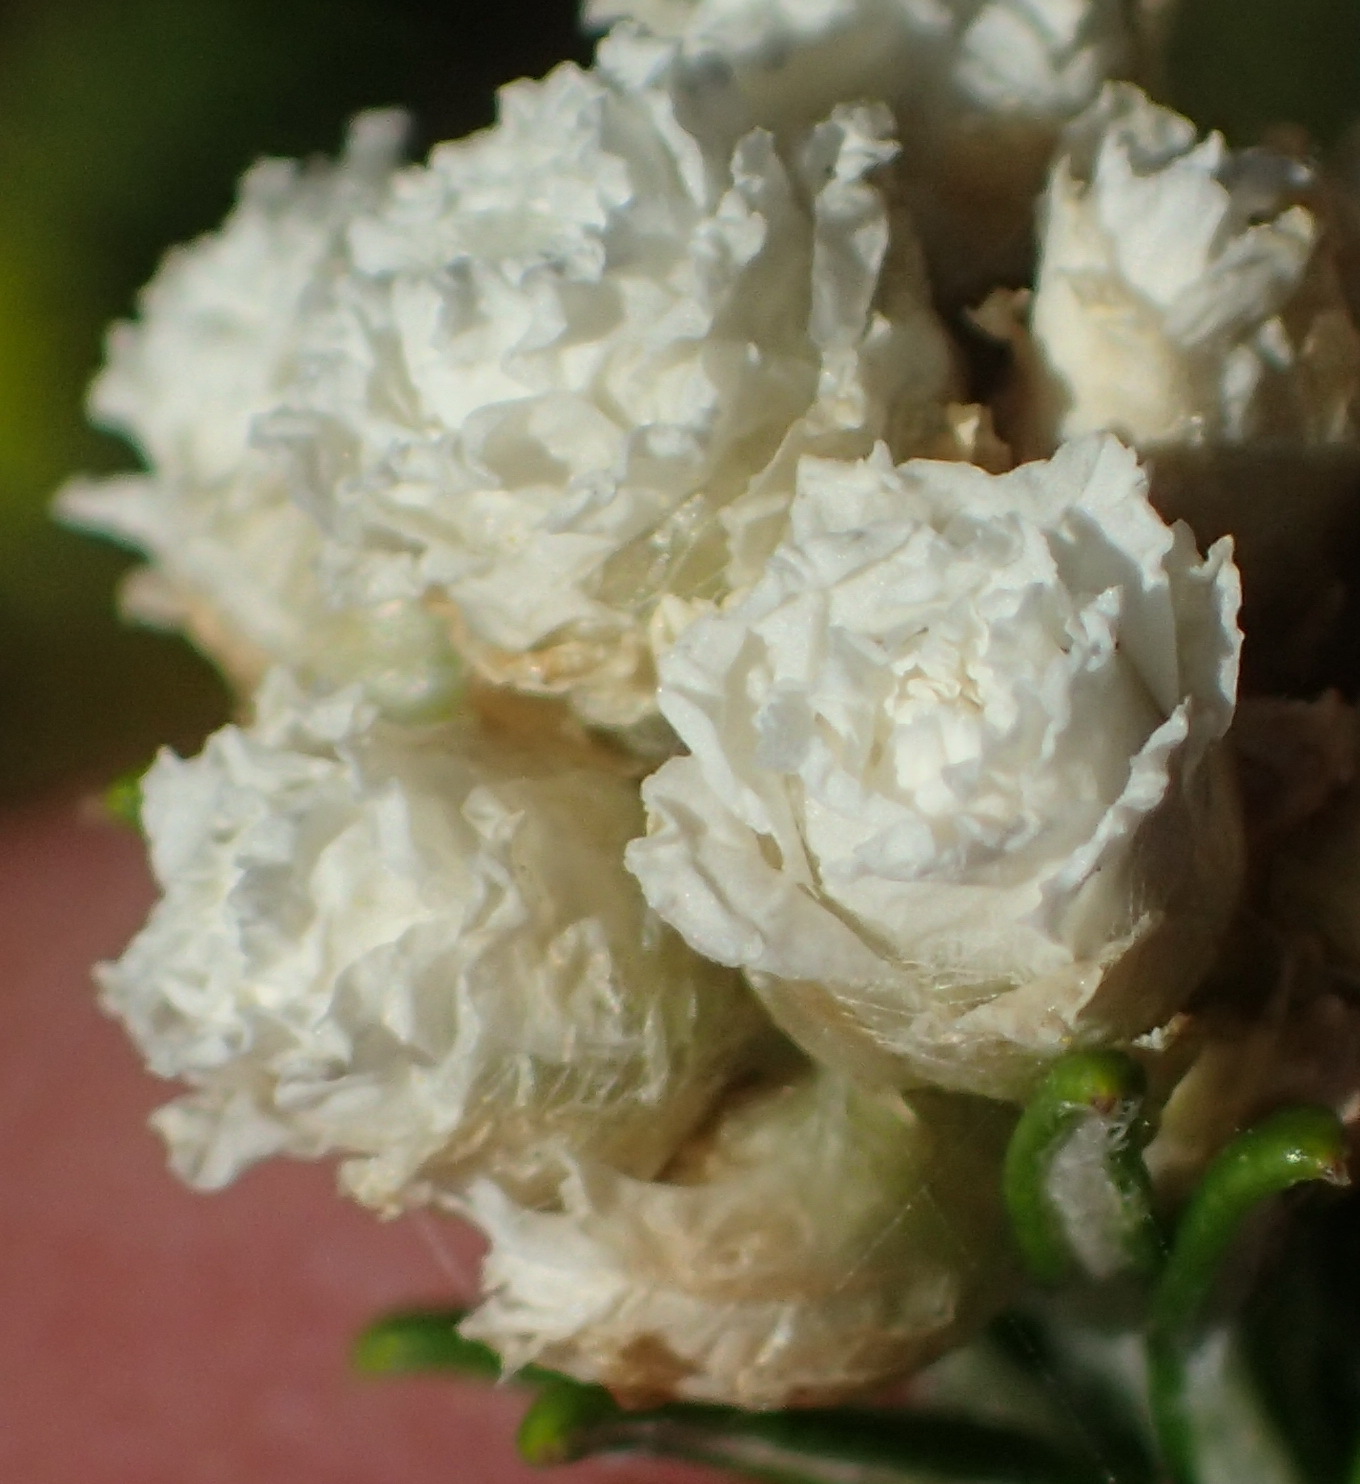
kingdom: Plantae
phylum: Tracheophyta
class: Magnoliopsida
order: Asterales
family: Asteraceae
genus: Helichrysum
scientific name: Helichrysum teretifolium
